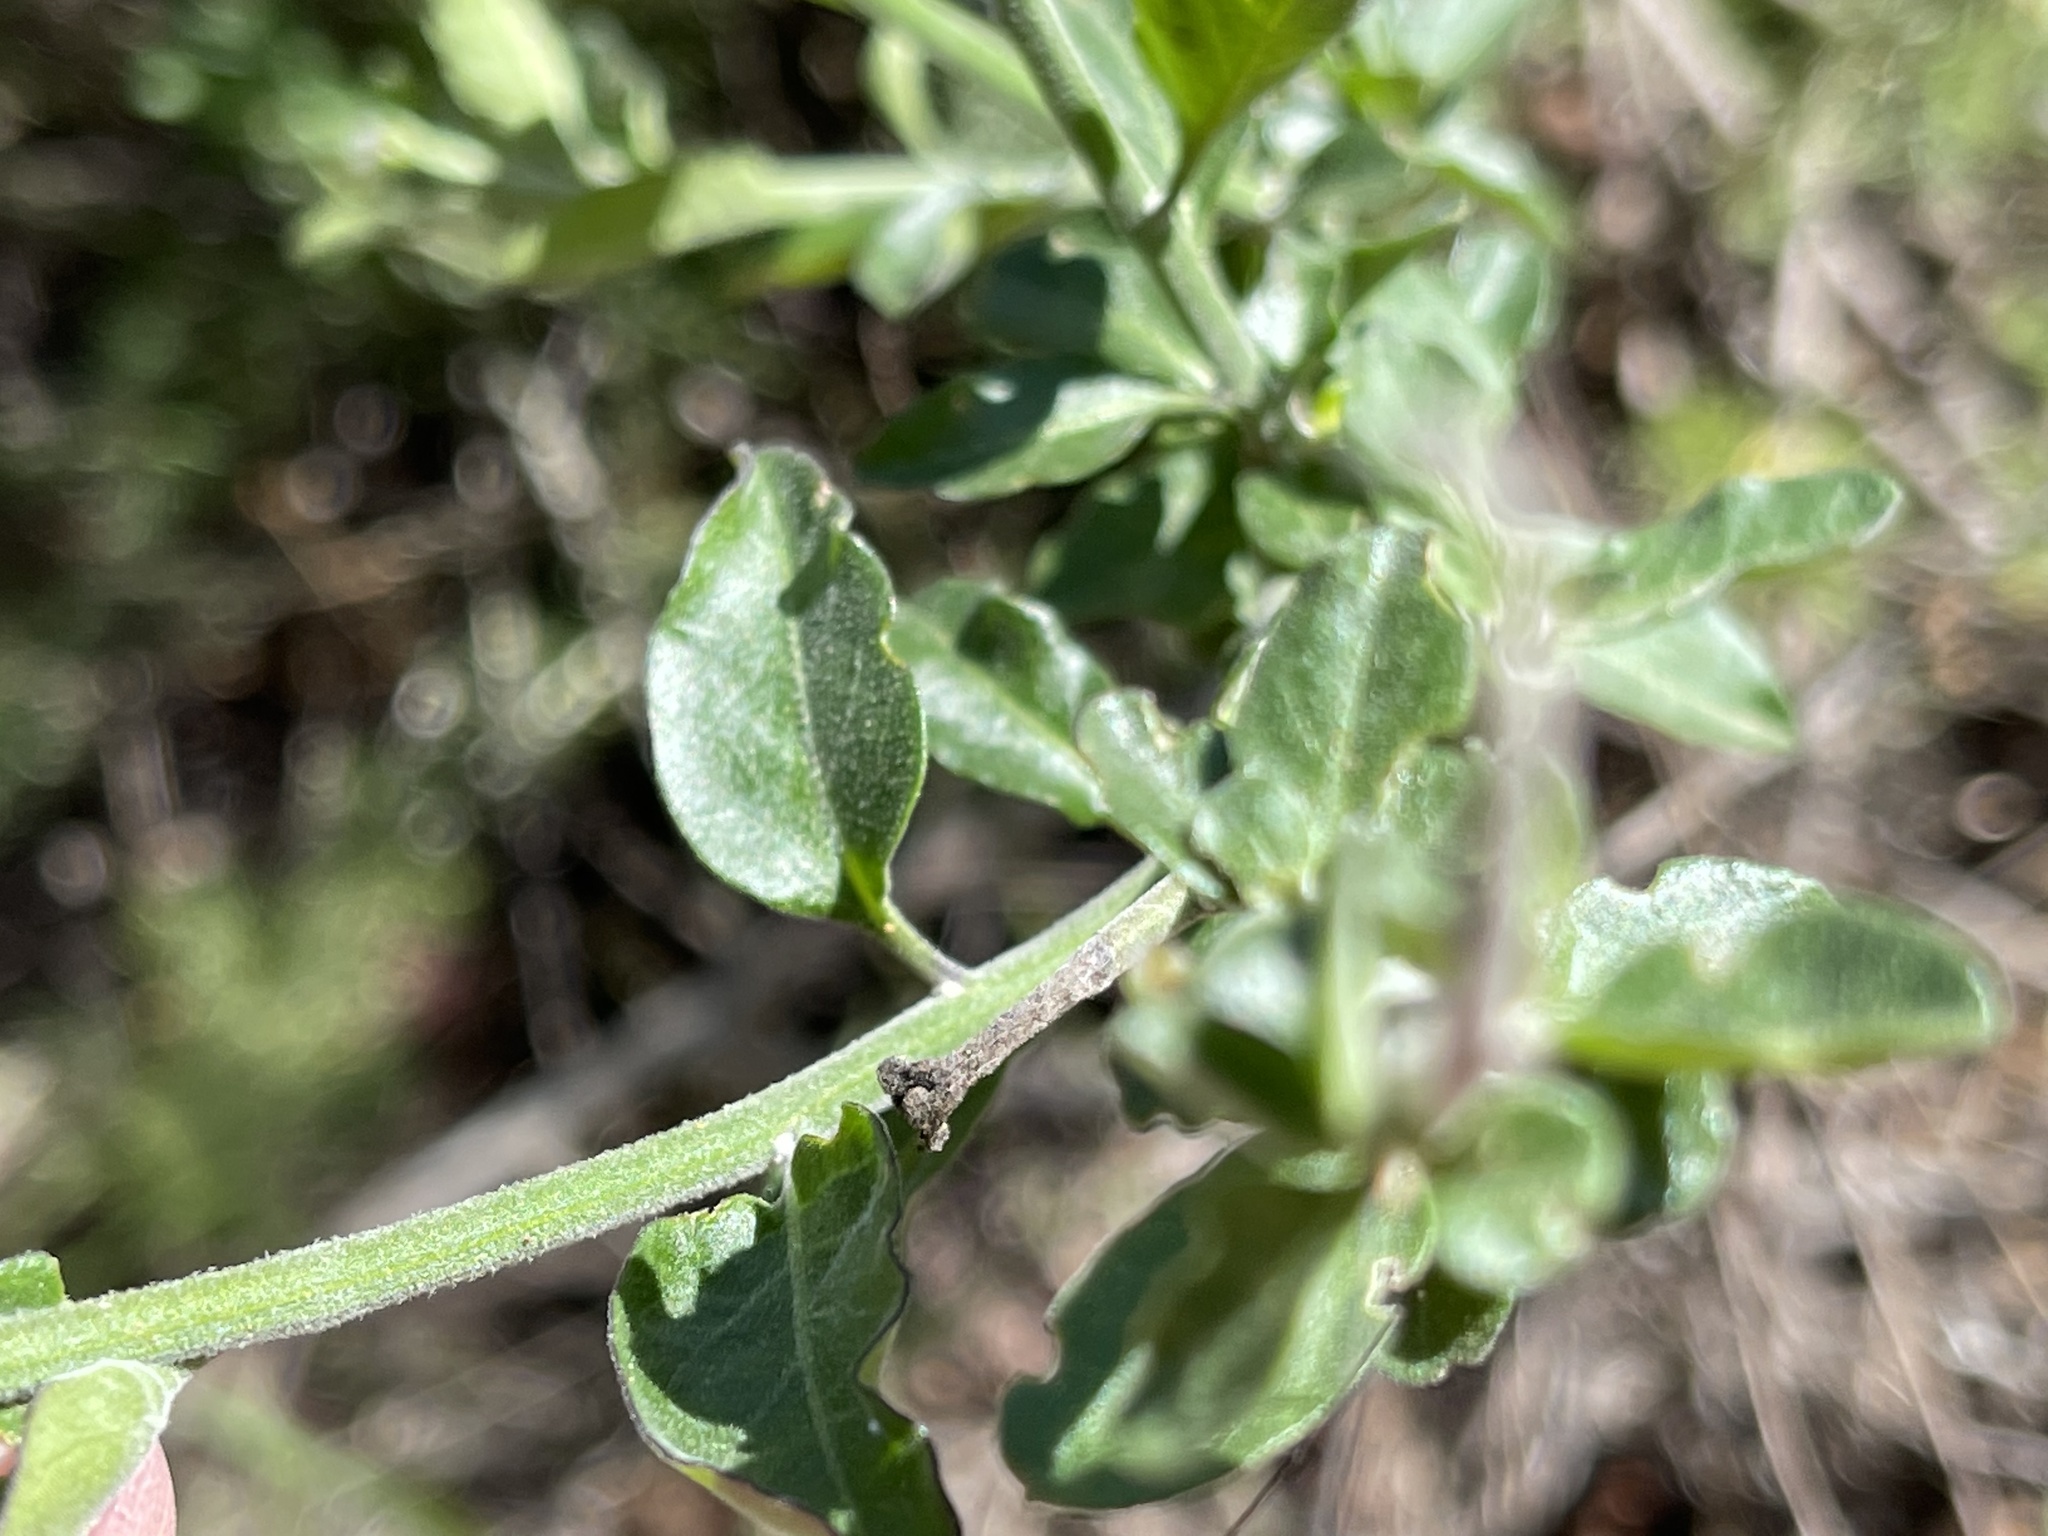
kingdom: Plantae
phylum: Tracheophyta
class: Magnoliopsida
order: Solanales
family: Solanaceae
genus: Solanum
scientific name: Solanum umbelliferum
